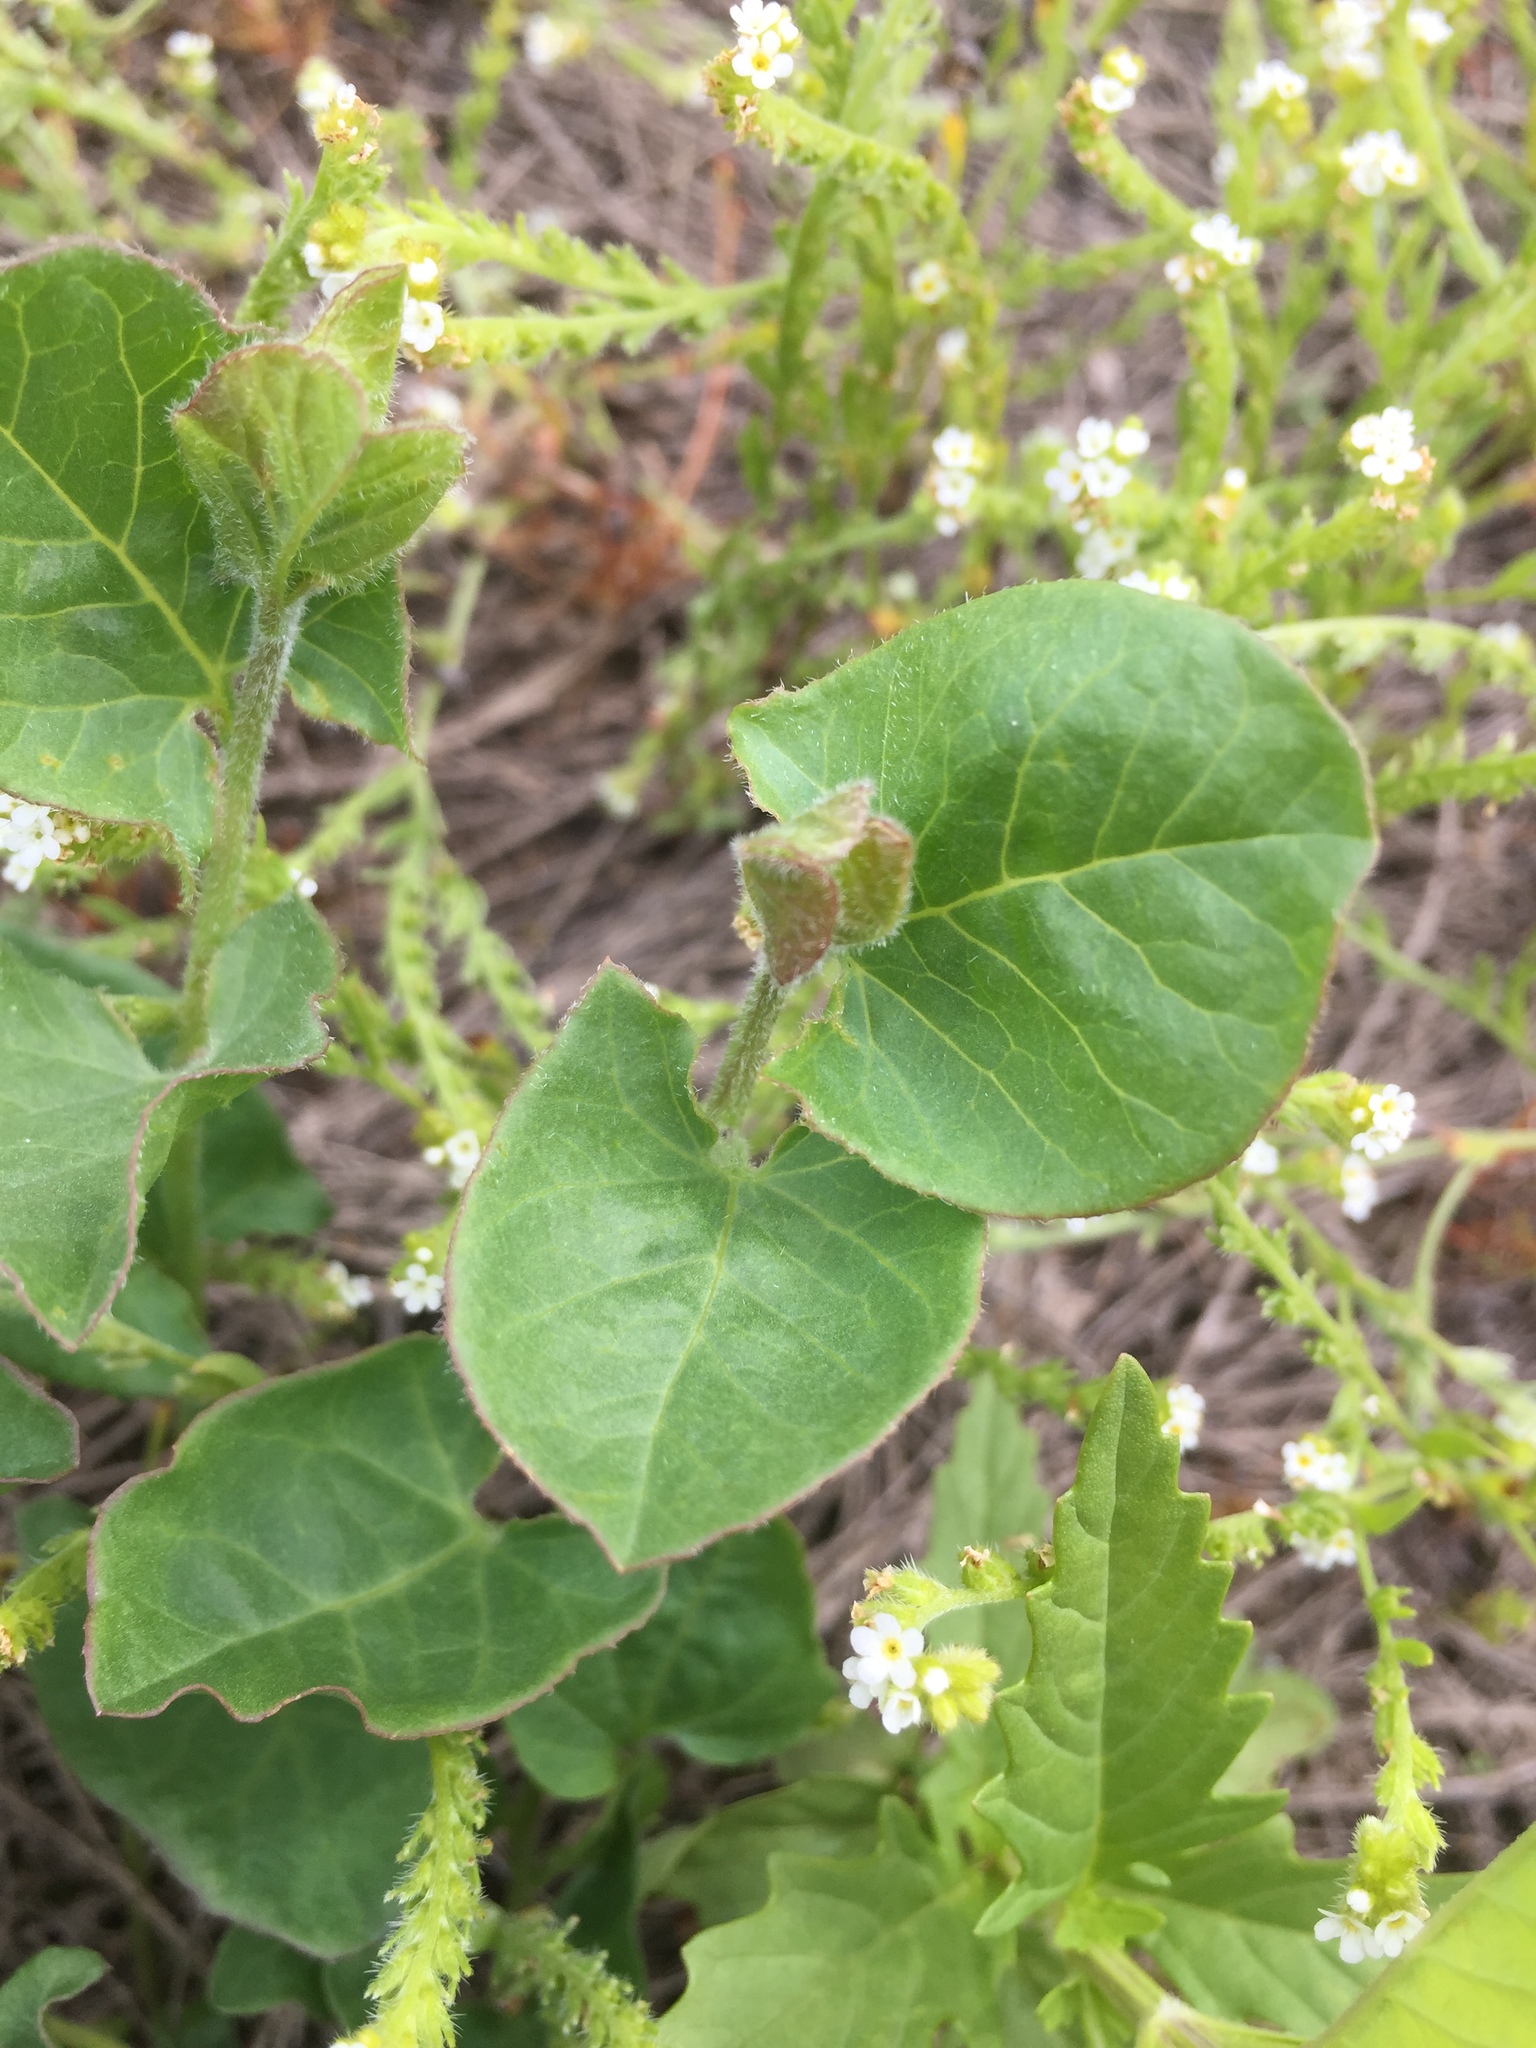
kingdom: Plantae
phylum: Tracheophyta
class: Magnoliopsida
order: Lamiales
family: Plantaginaceae
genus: Kickxia
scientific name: Kickxia elatine
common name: Sharp-leaved fluellen
